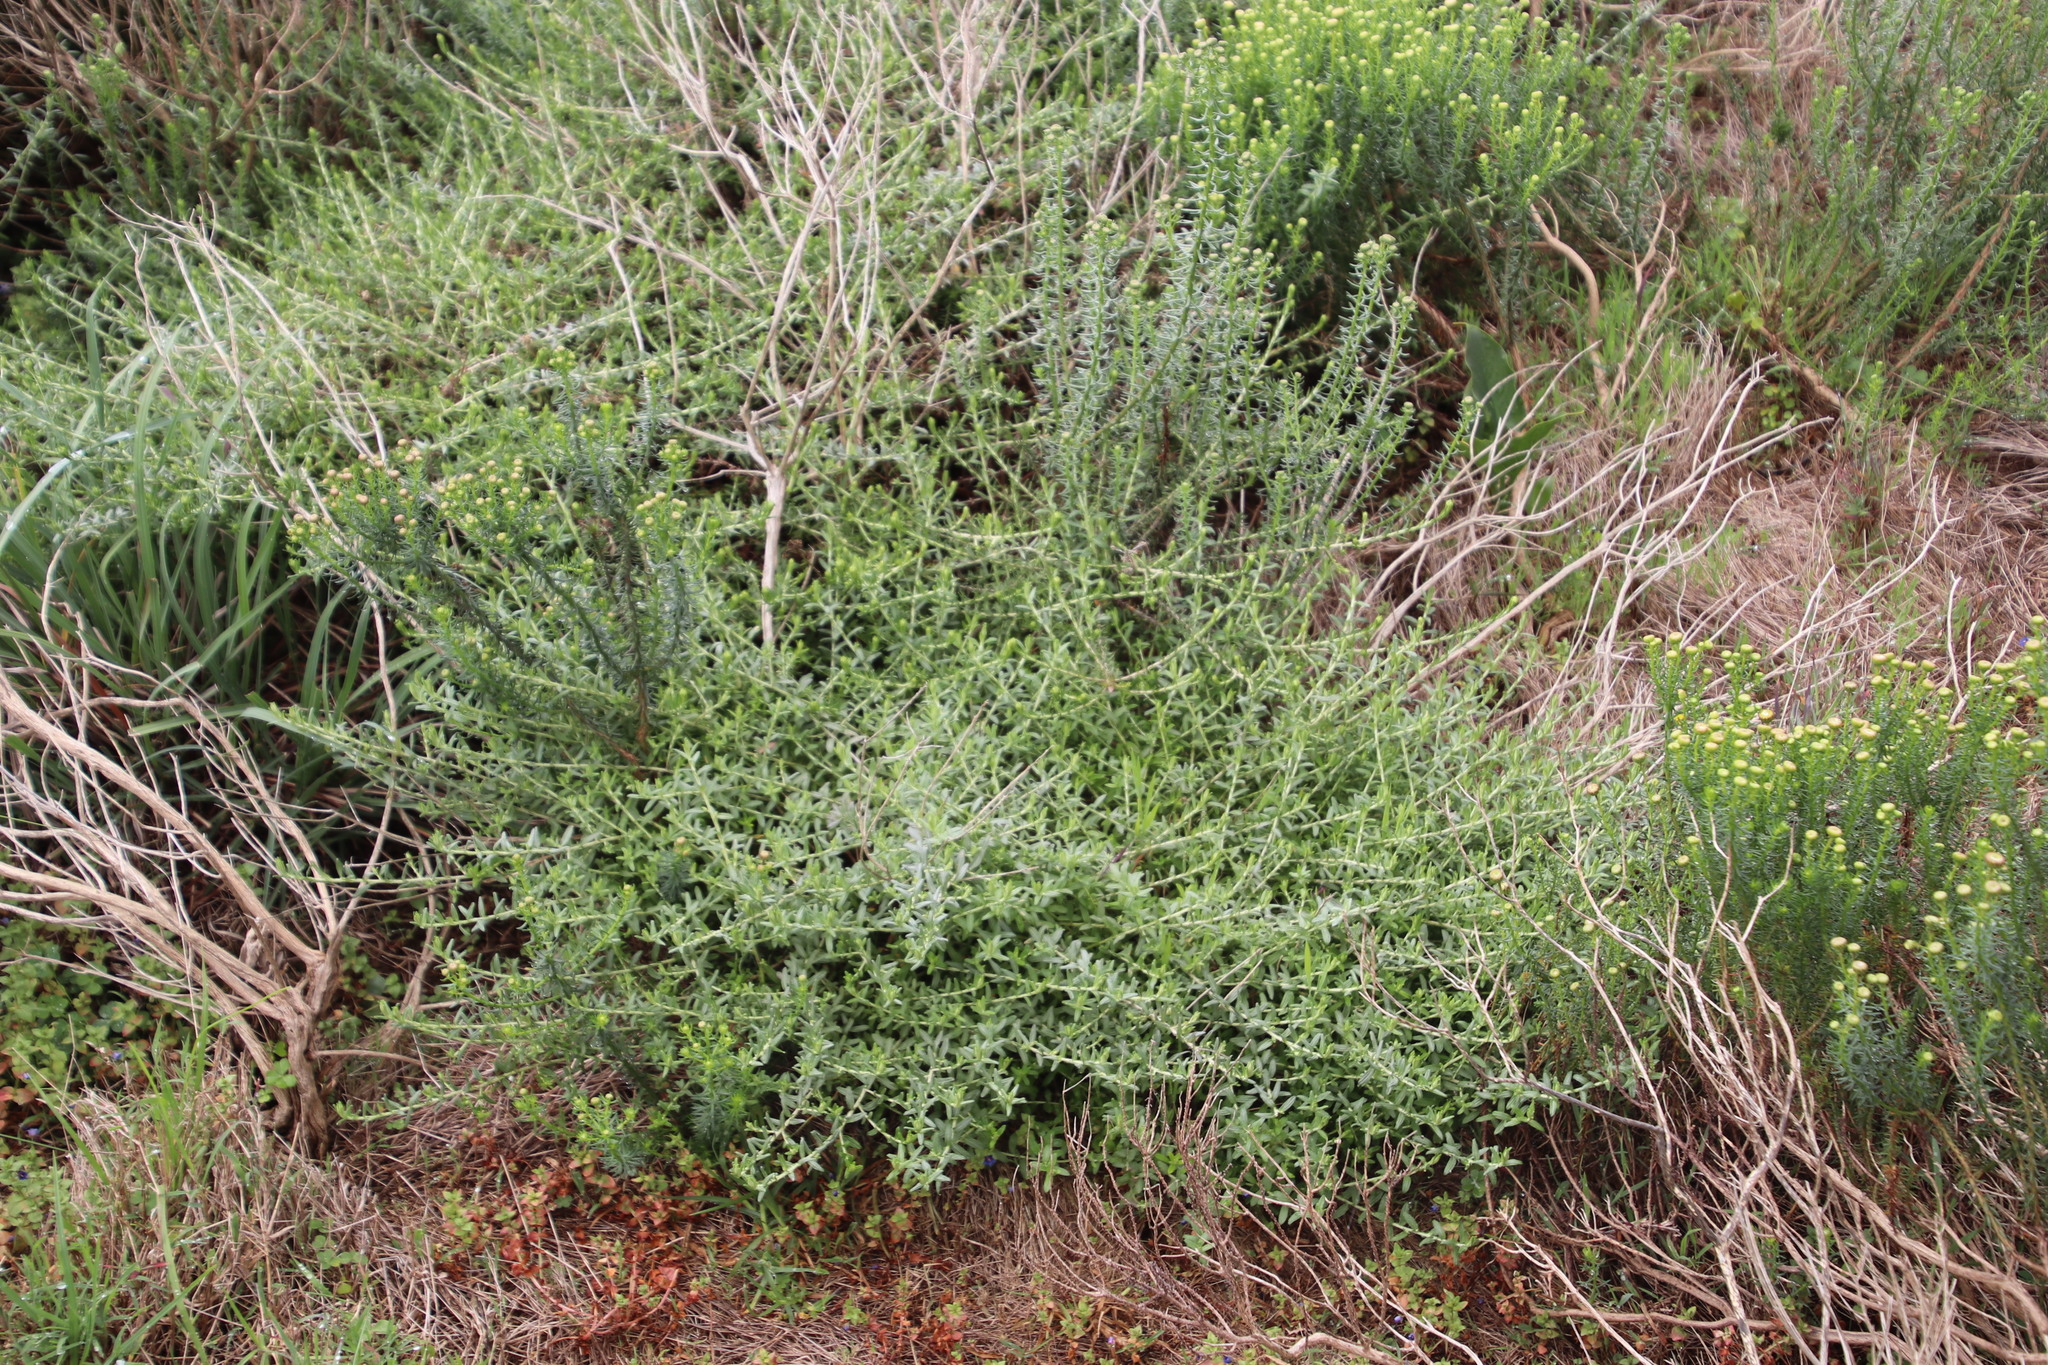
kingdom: Plantae
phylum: Tracheophyta
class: Magnoliopsida
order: Asterales
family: Asteraceae
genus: Helichrysum
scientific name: Helichrysum cymosum
